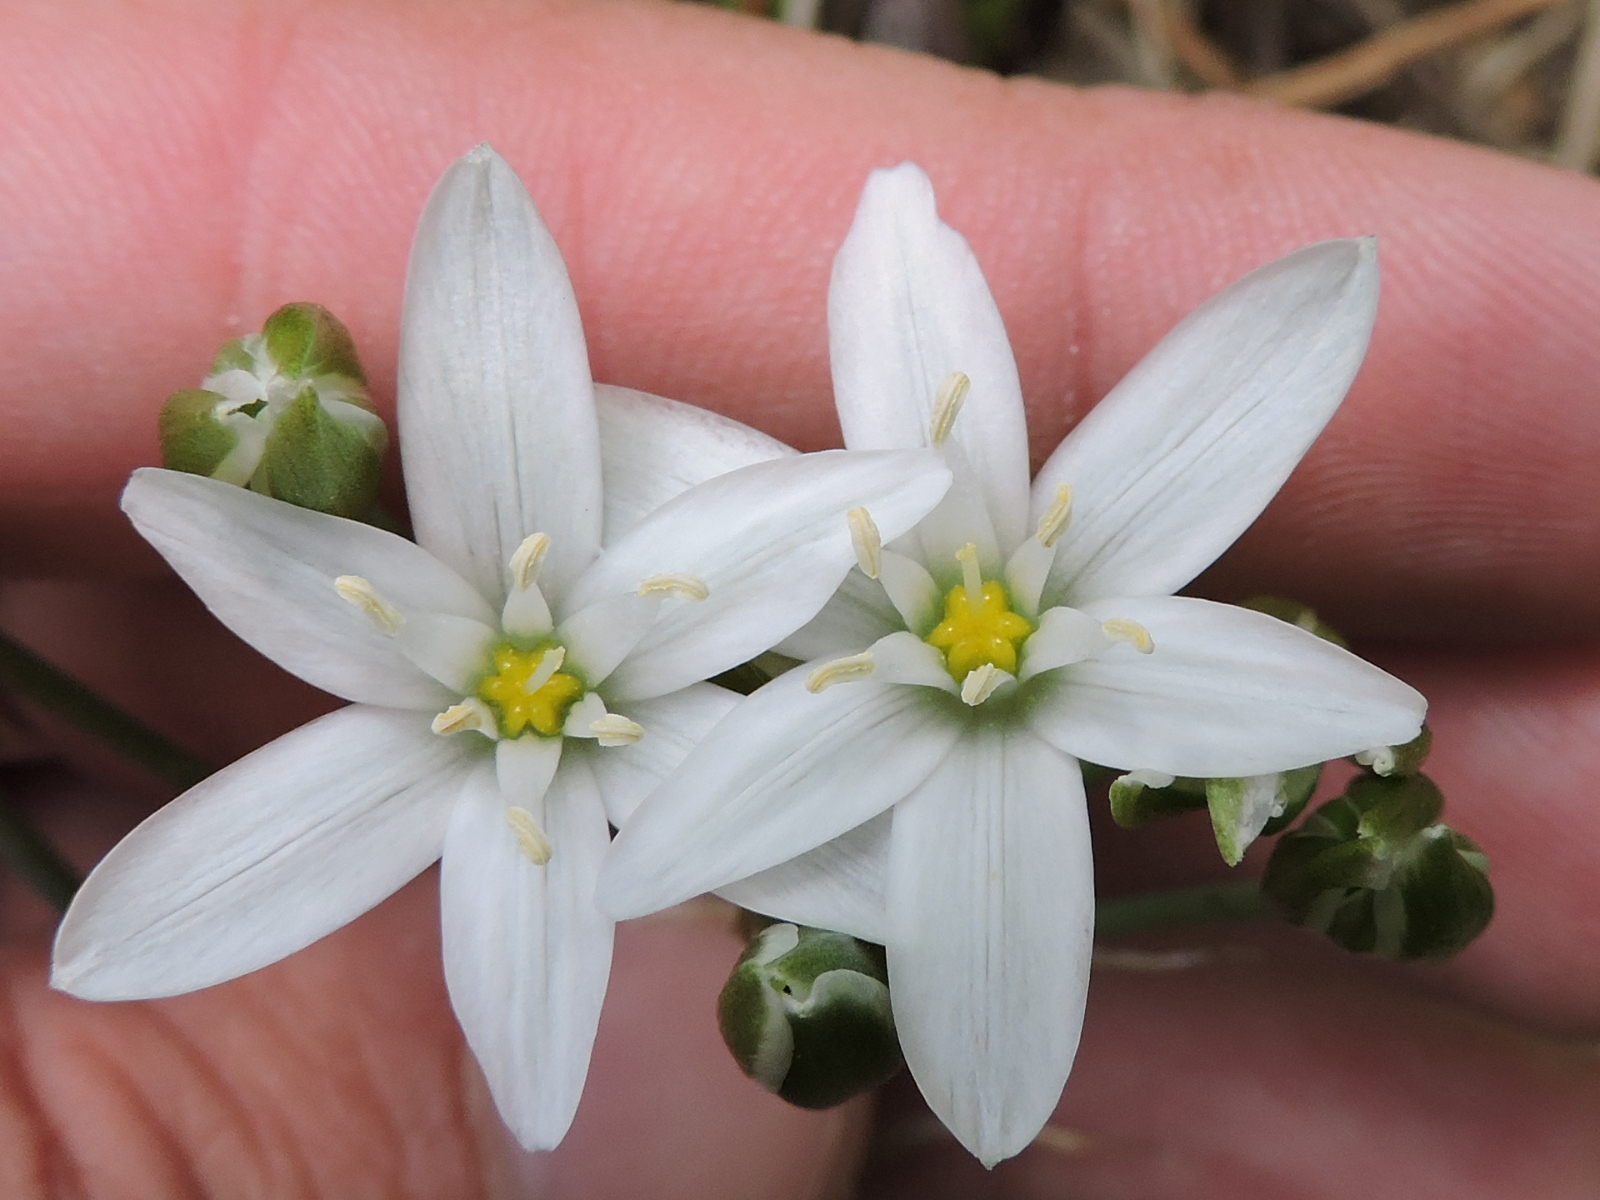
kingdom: Plantae
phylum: Tracheophyta
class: Liliopsida
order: Asparagales
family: Asparagaceae
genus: Ornithogalum
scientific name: Ornithogalum umbellatum
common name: Garden star-of-bethlehem
